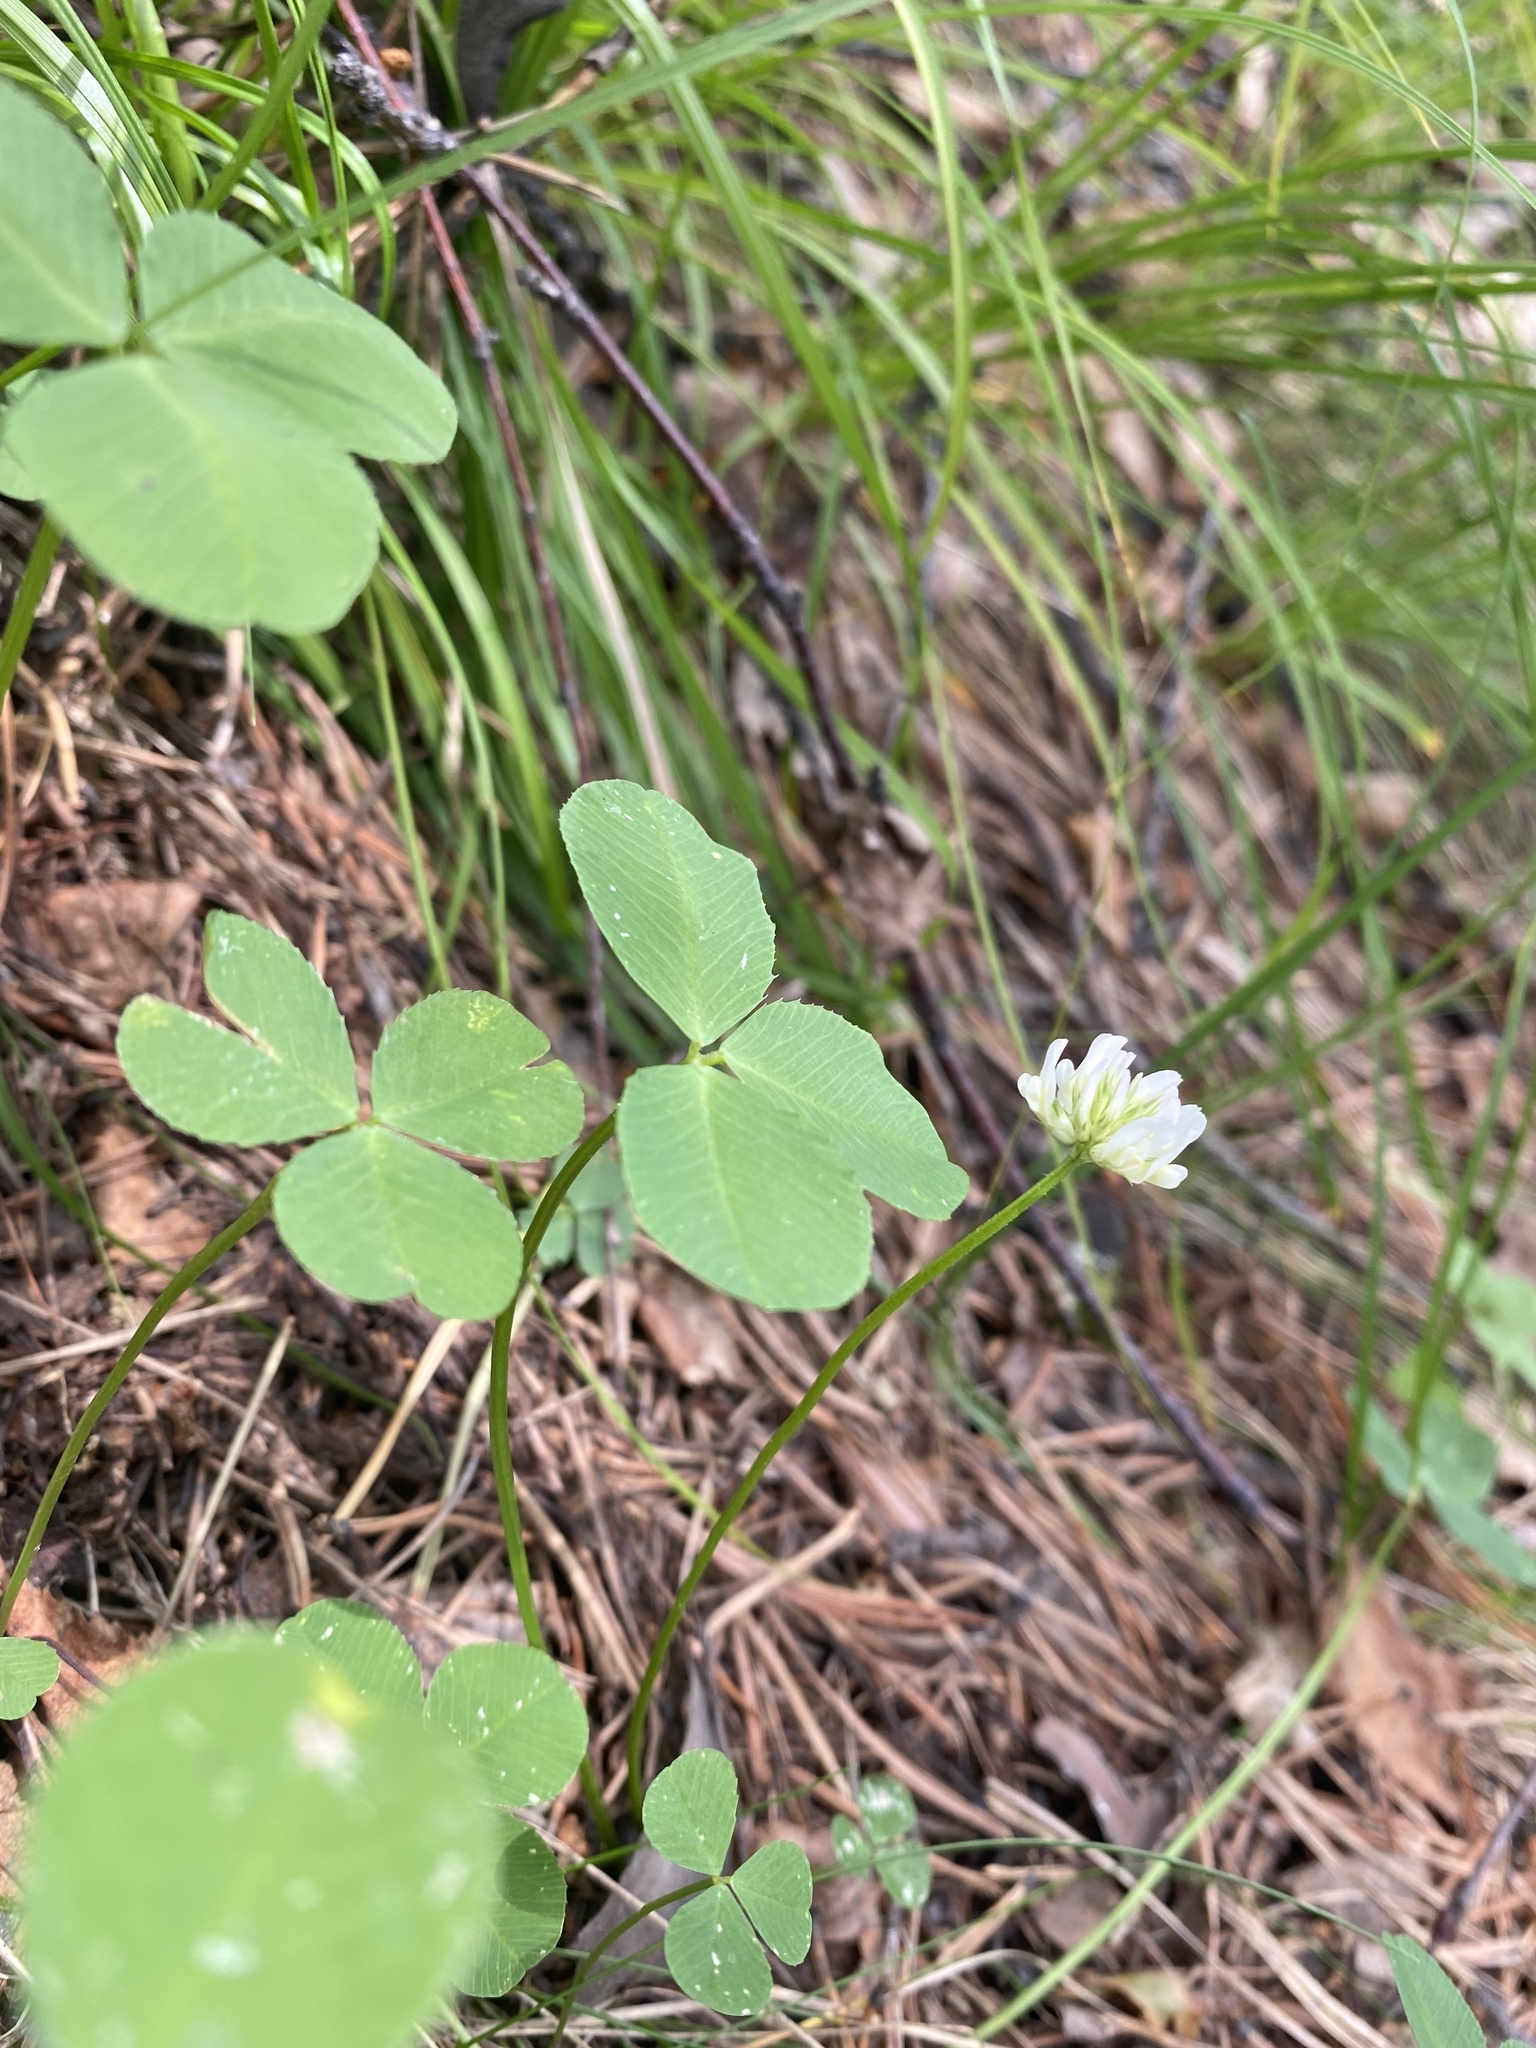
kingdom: Plantae
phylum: Tracheophyta
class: Magnoliopsida
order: Fabales
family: Fabaceae
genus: Trifolium
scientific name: Trifolium repens
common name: White clover
